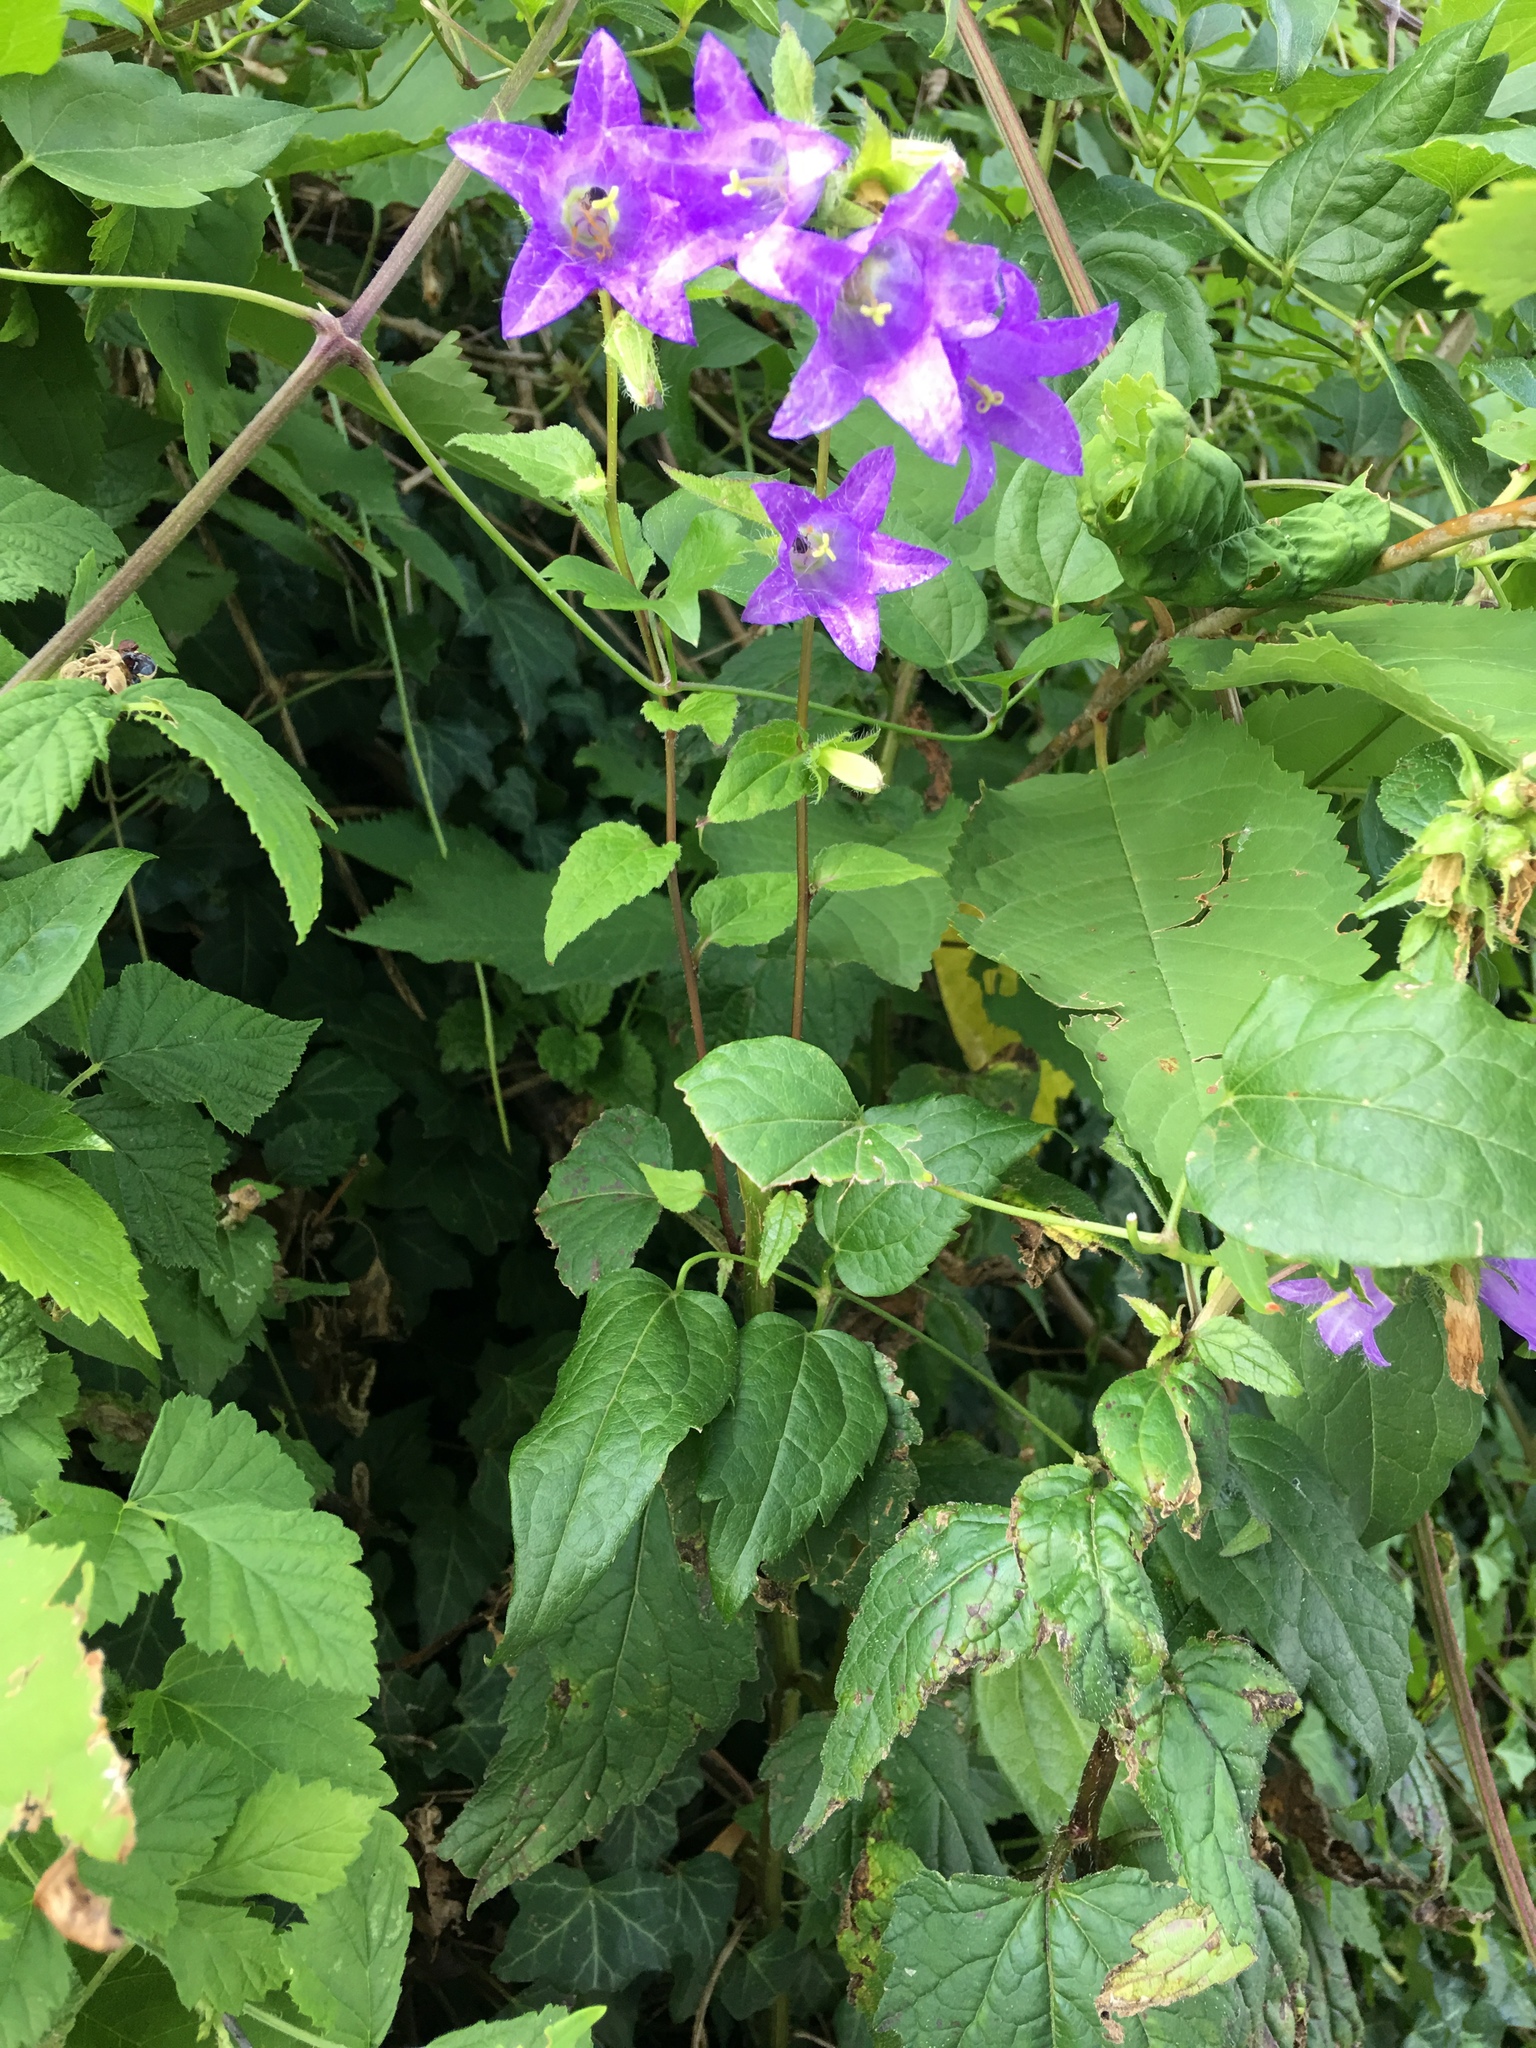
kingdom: Plantae
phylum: Tracheophyta
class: Magnoliopsida
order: Asterales
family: Campanulaceae
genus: Campanula
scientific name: Campanula trachelium
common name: Nettle-leaved bellflower
